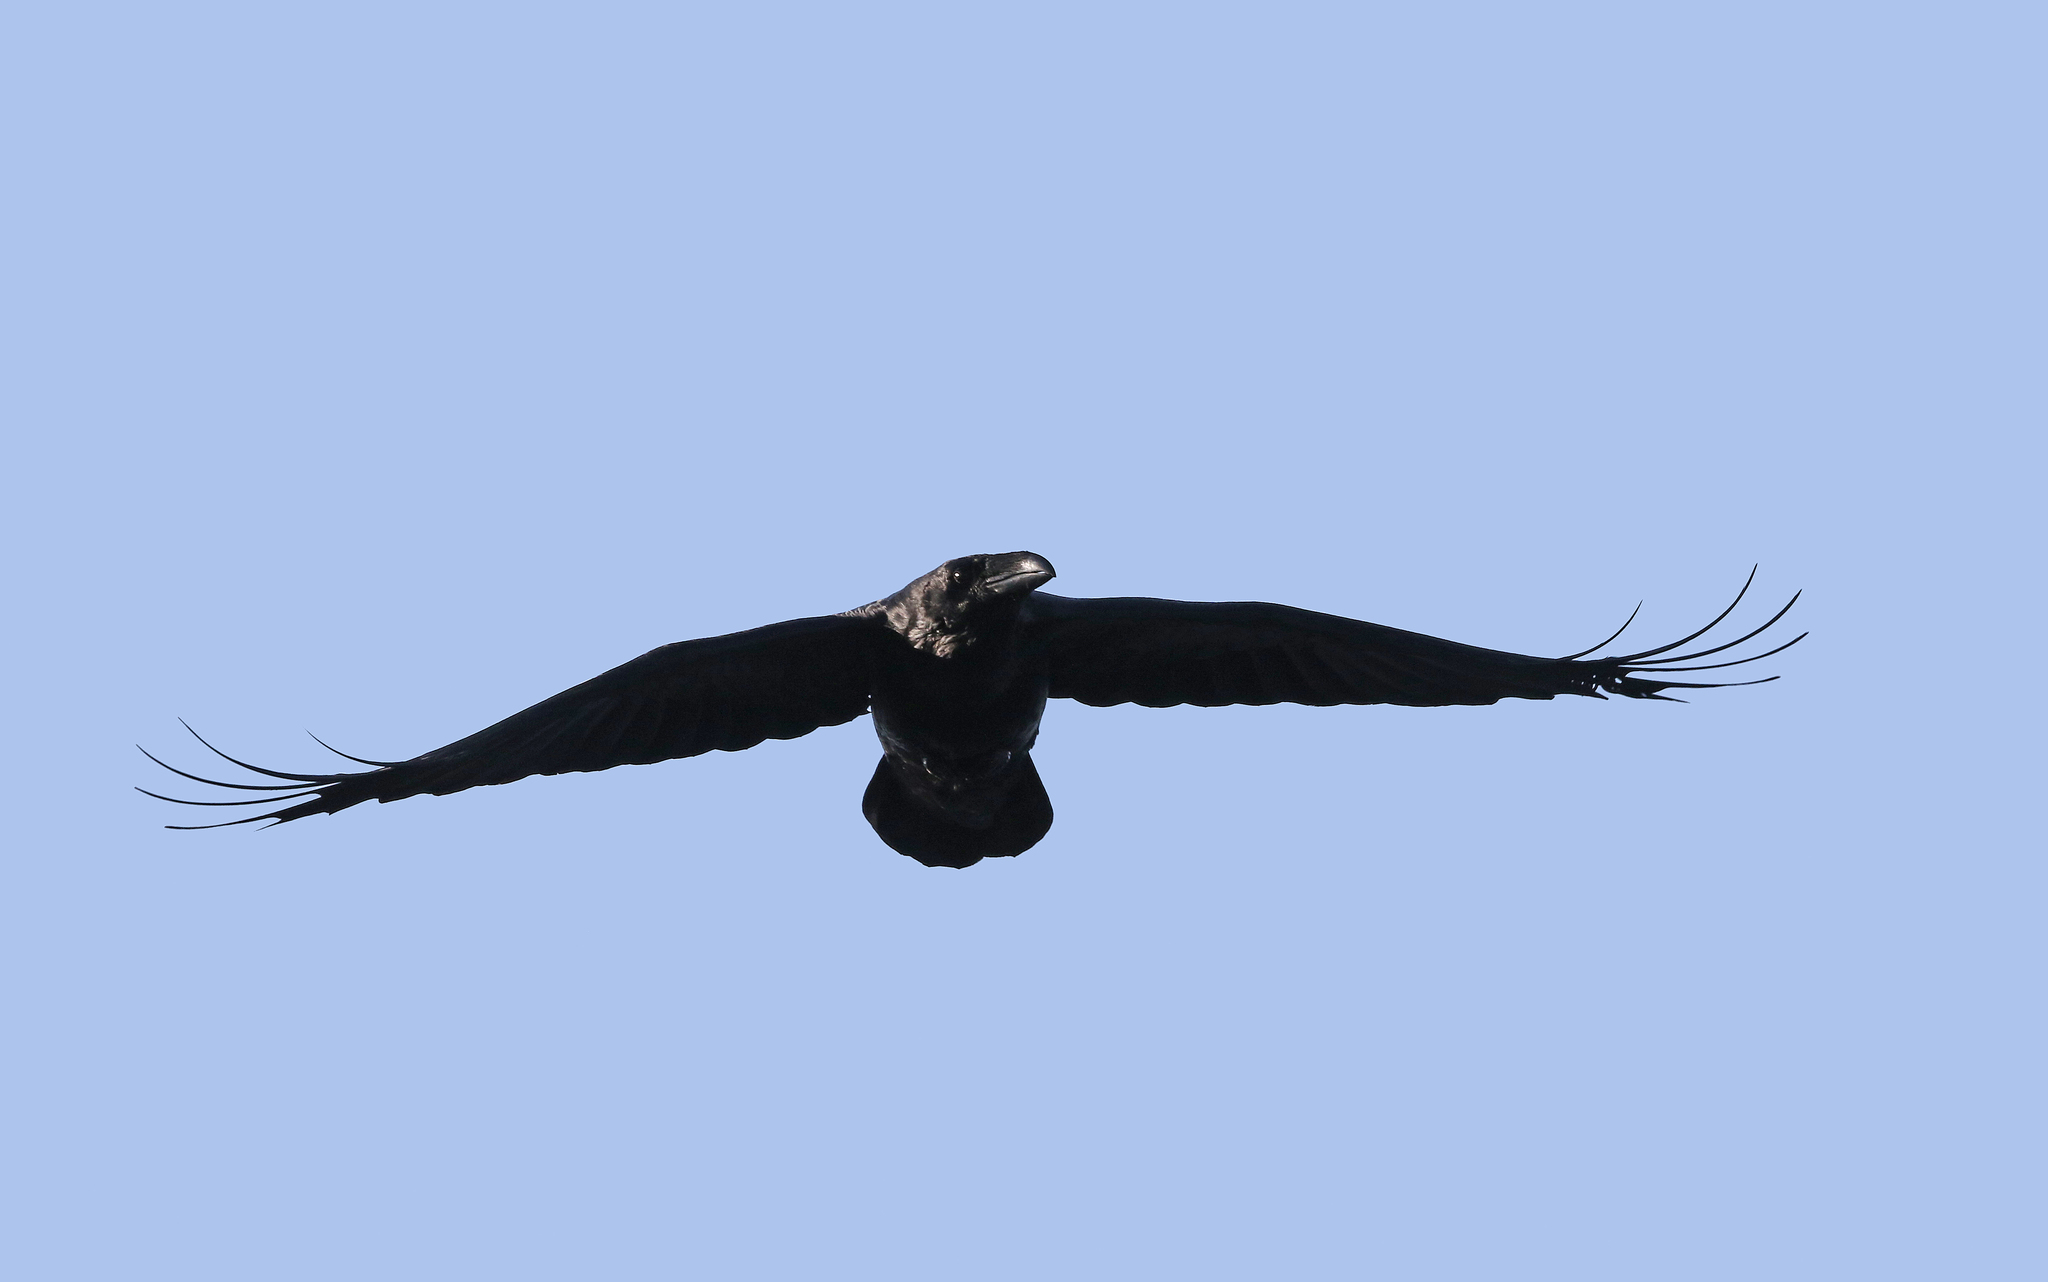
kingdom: Animalia
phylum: Chordata
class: Aves
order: Passeriformes
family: Corvidae
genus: Corvus
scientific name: Corvus corax
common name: Common raven
